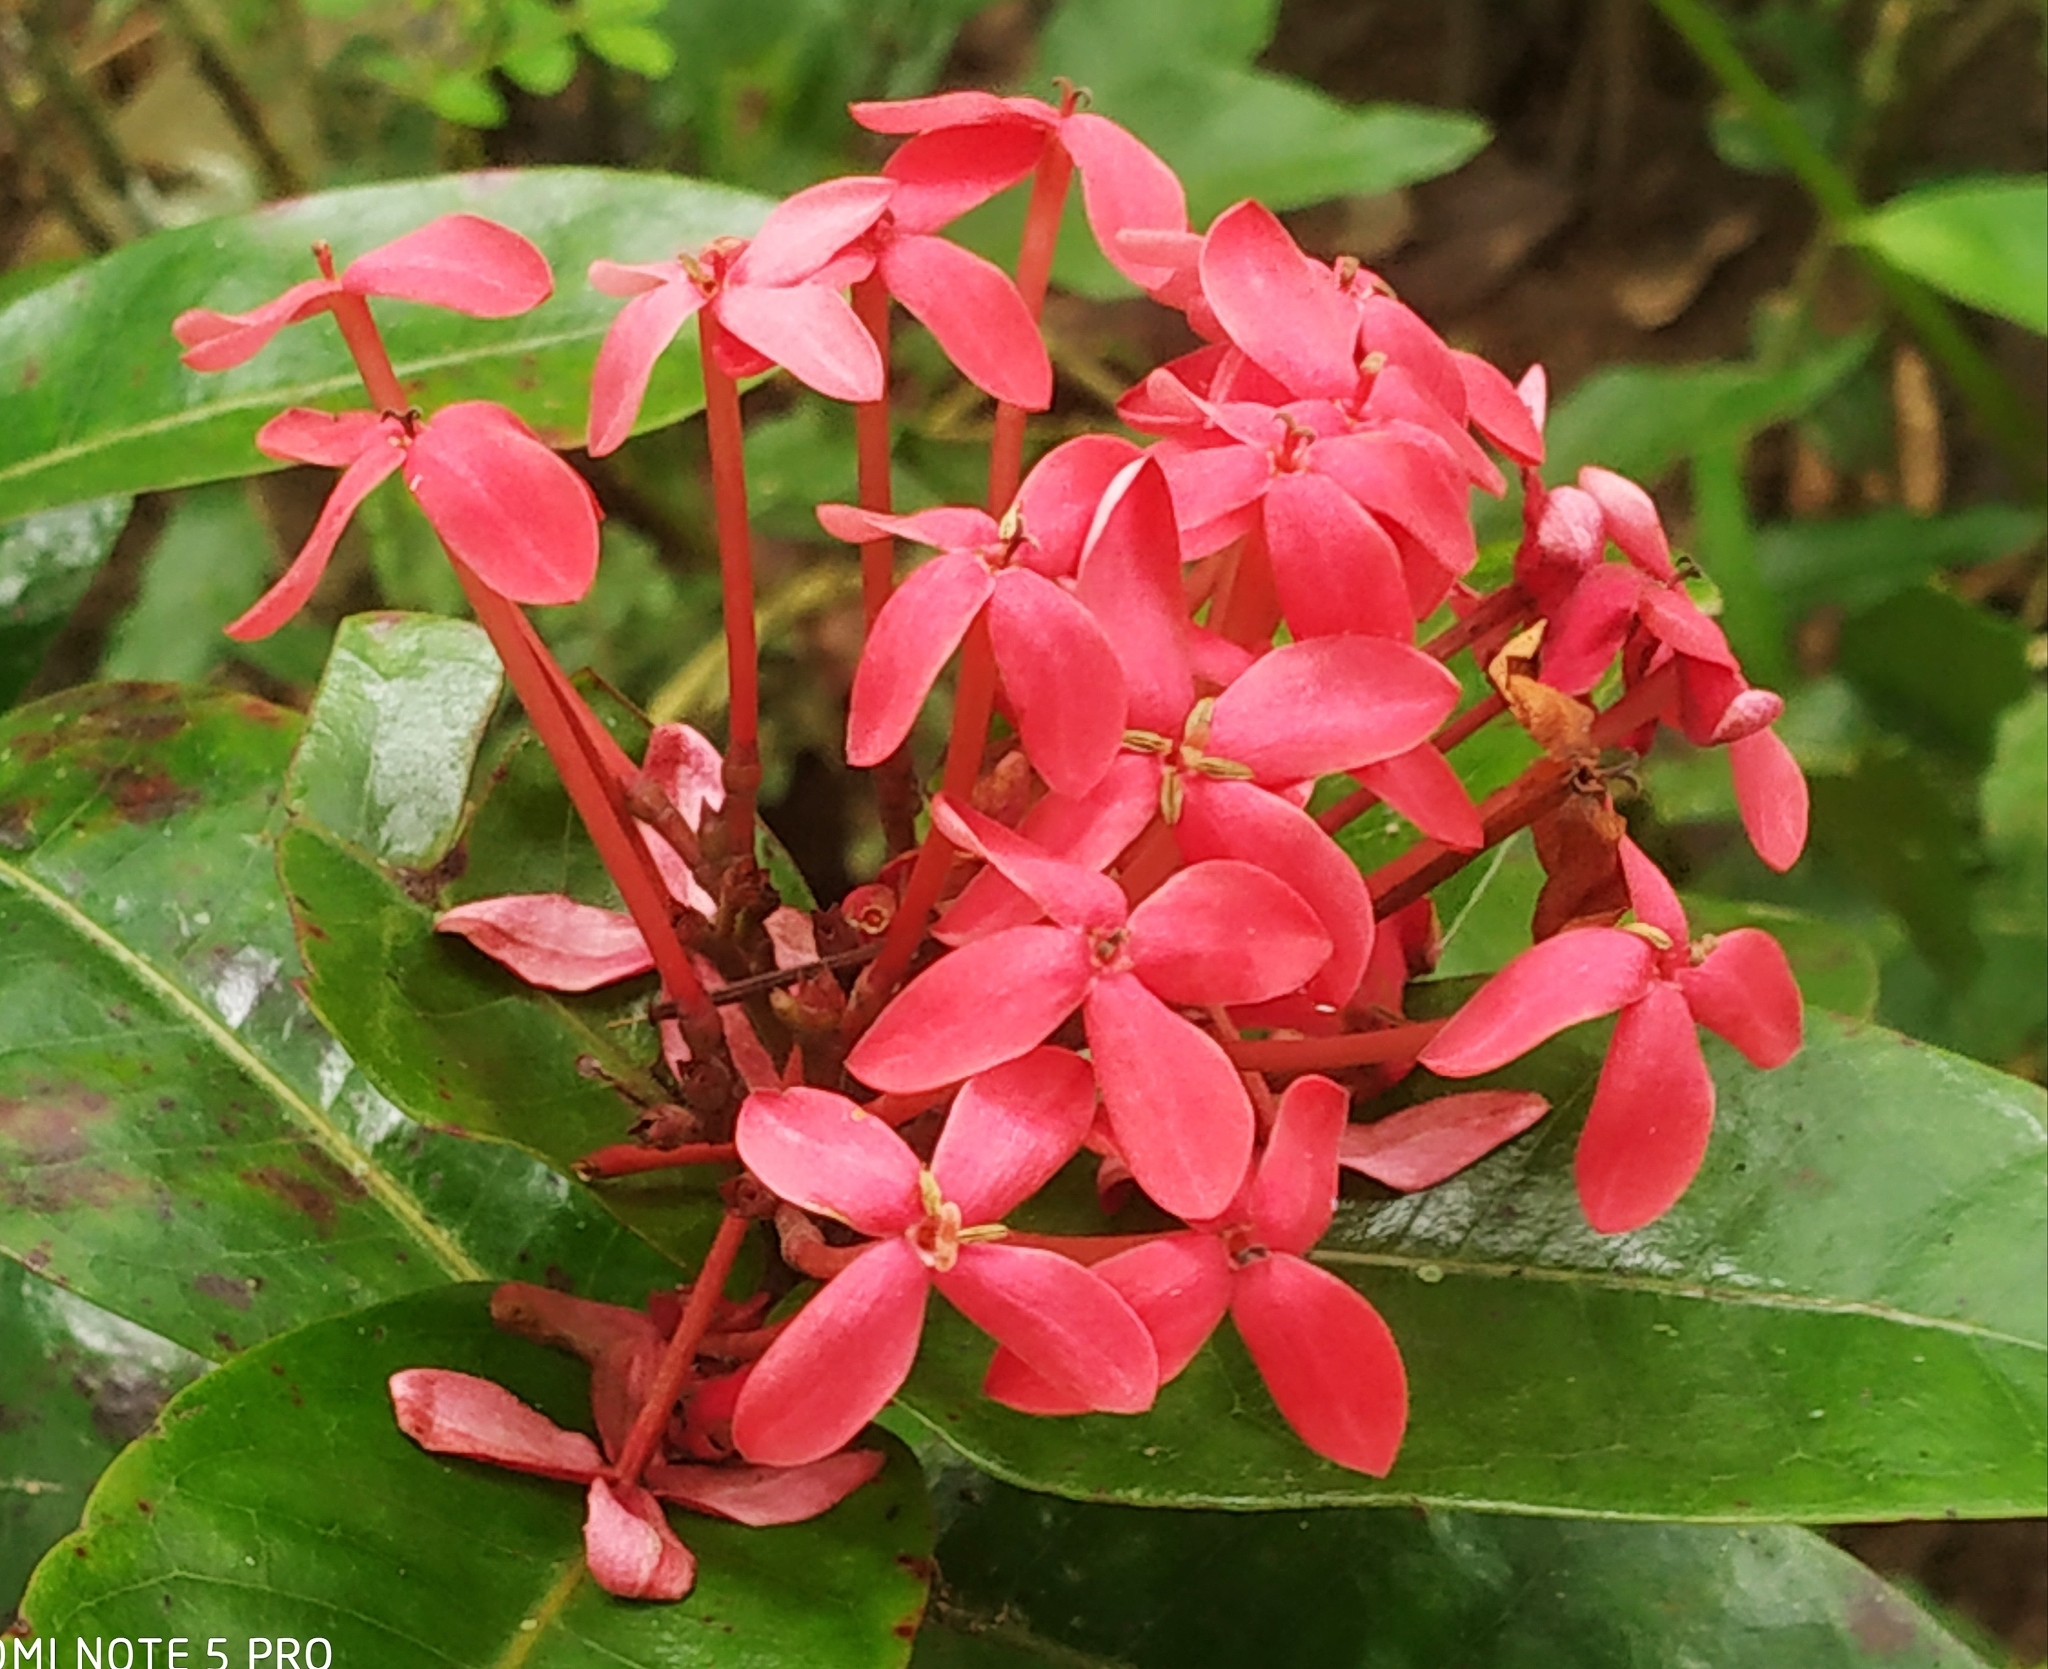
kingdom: Plantae
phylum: Tracheophyta
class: Magnoliopsida
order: Gentianales
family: Rubiaceae
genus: Ixora
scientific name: Ixora coccinea
